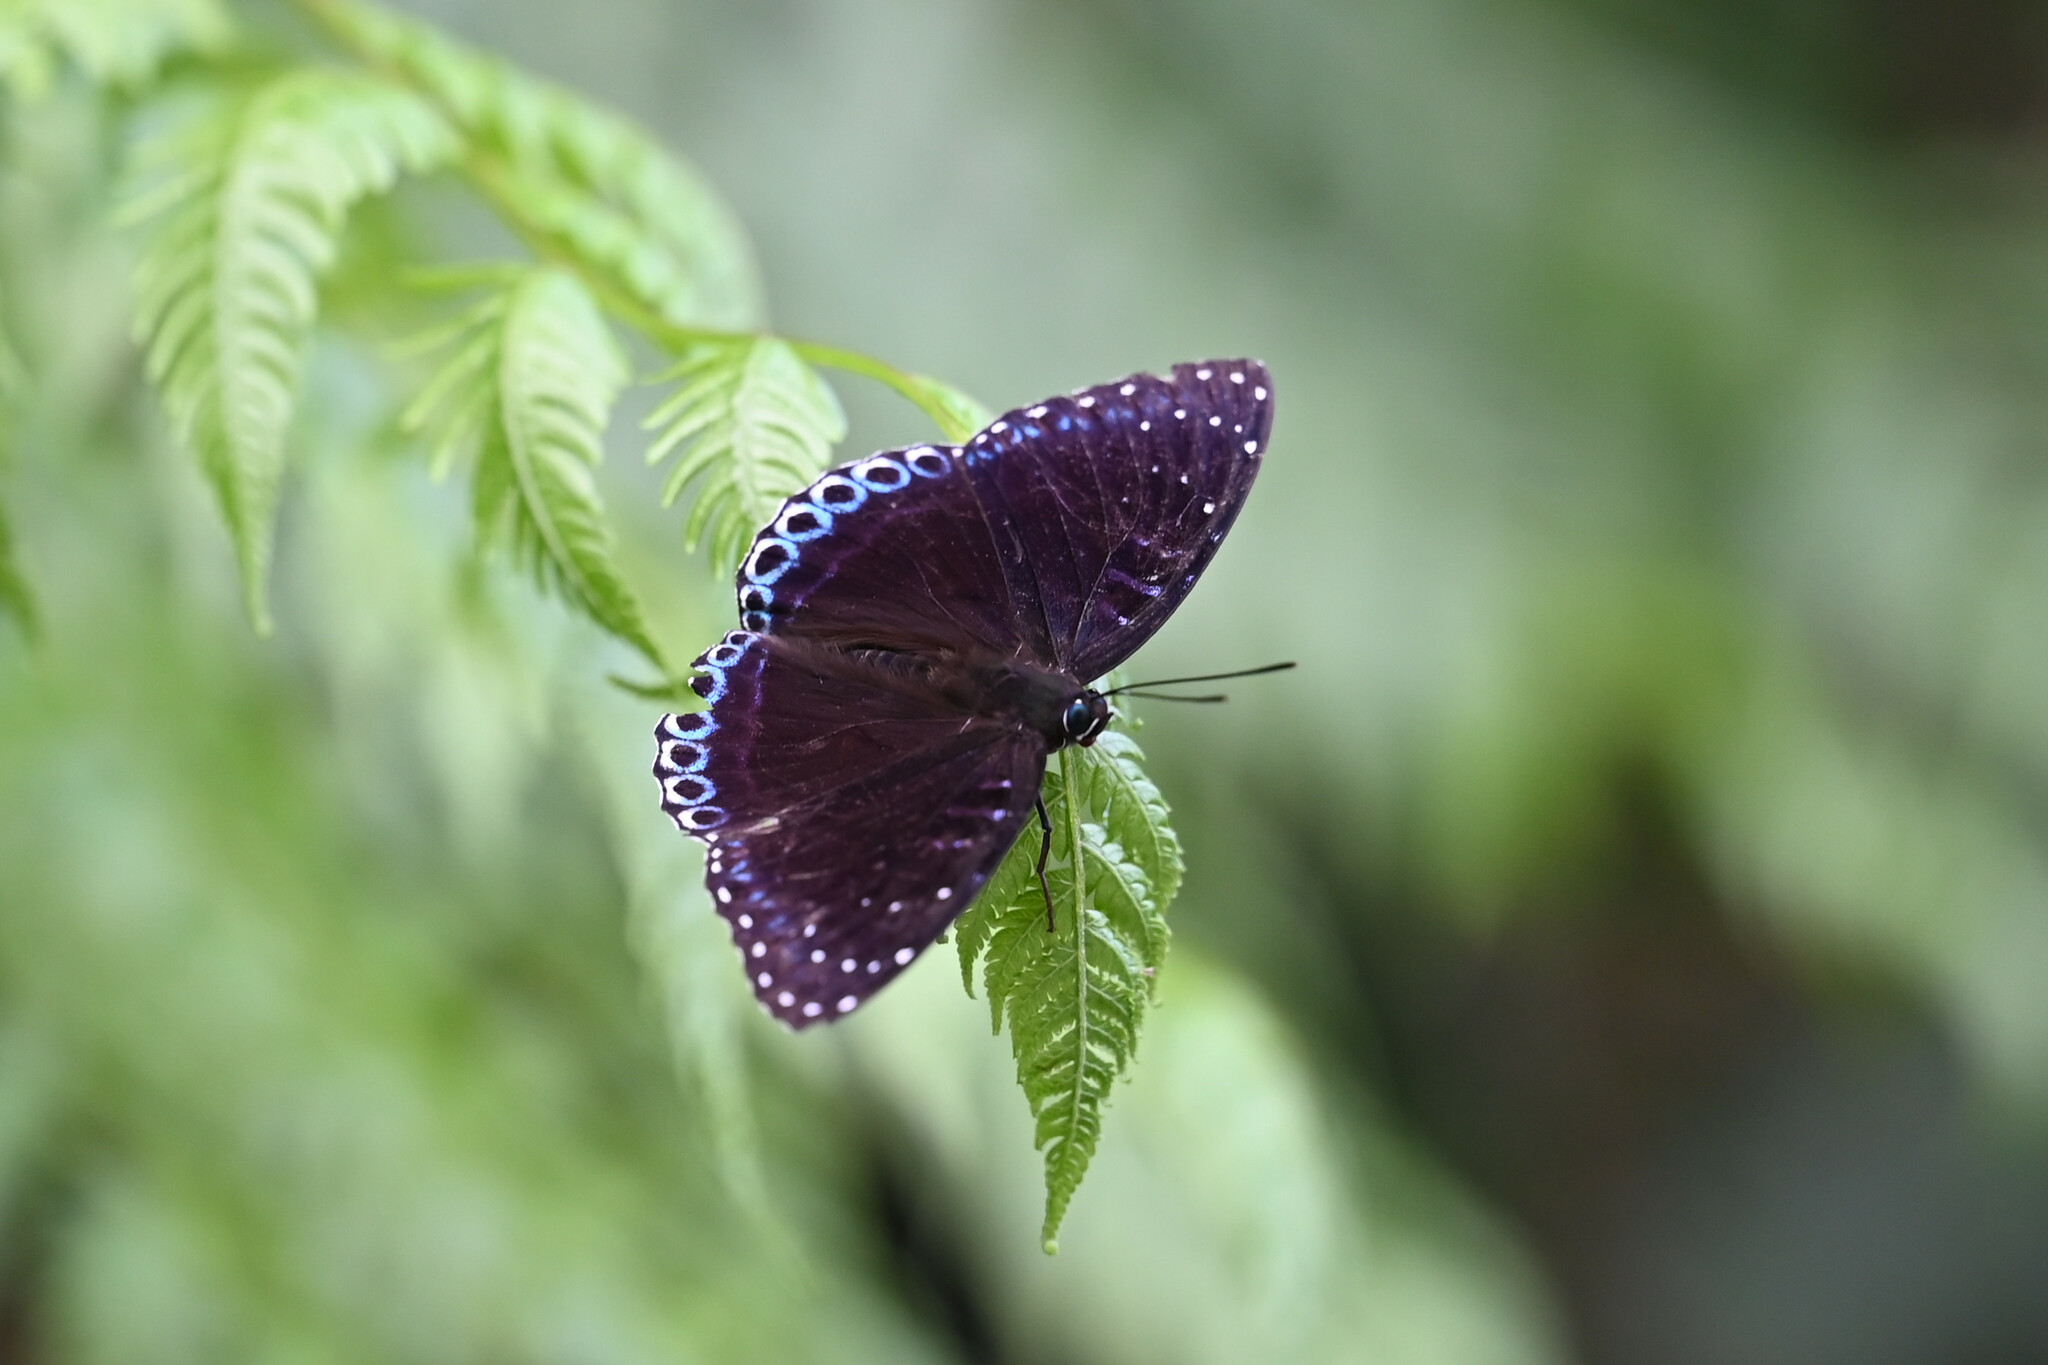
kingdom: Animalia
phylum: Arthropoda
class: Insecta
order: Lepidoptera
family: Nymphalidae
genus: Stibochiona
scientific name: Stibochiona nicea
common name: Popinjay
